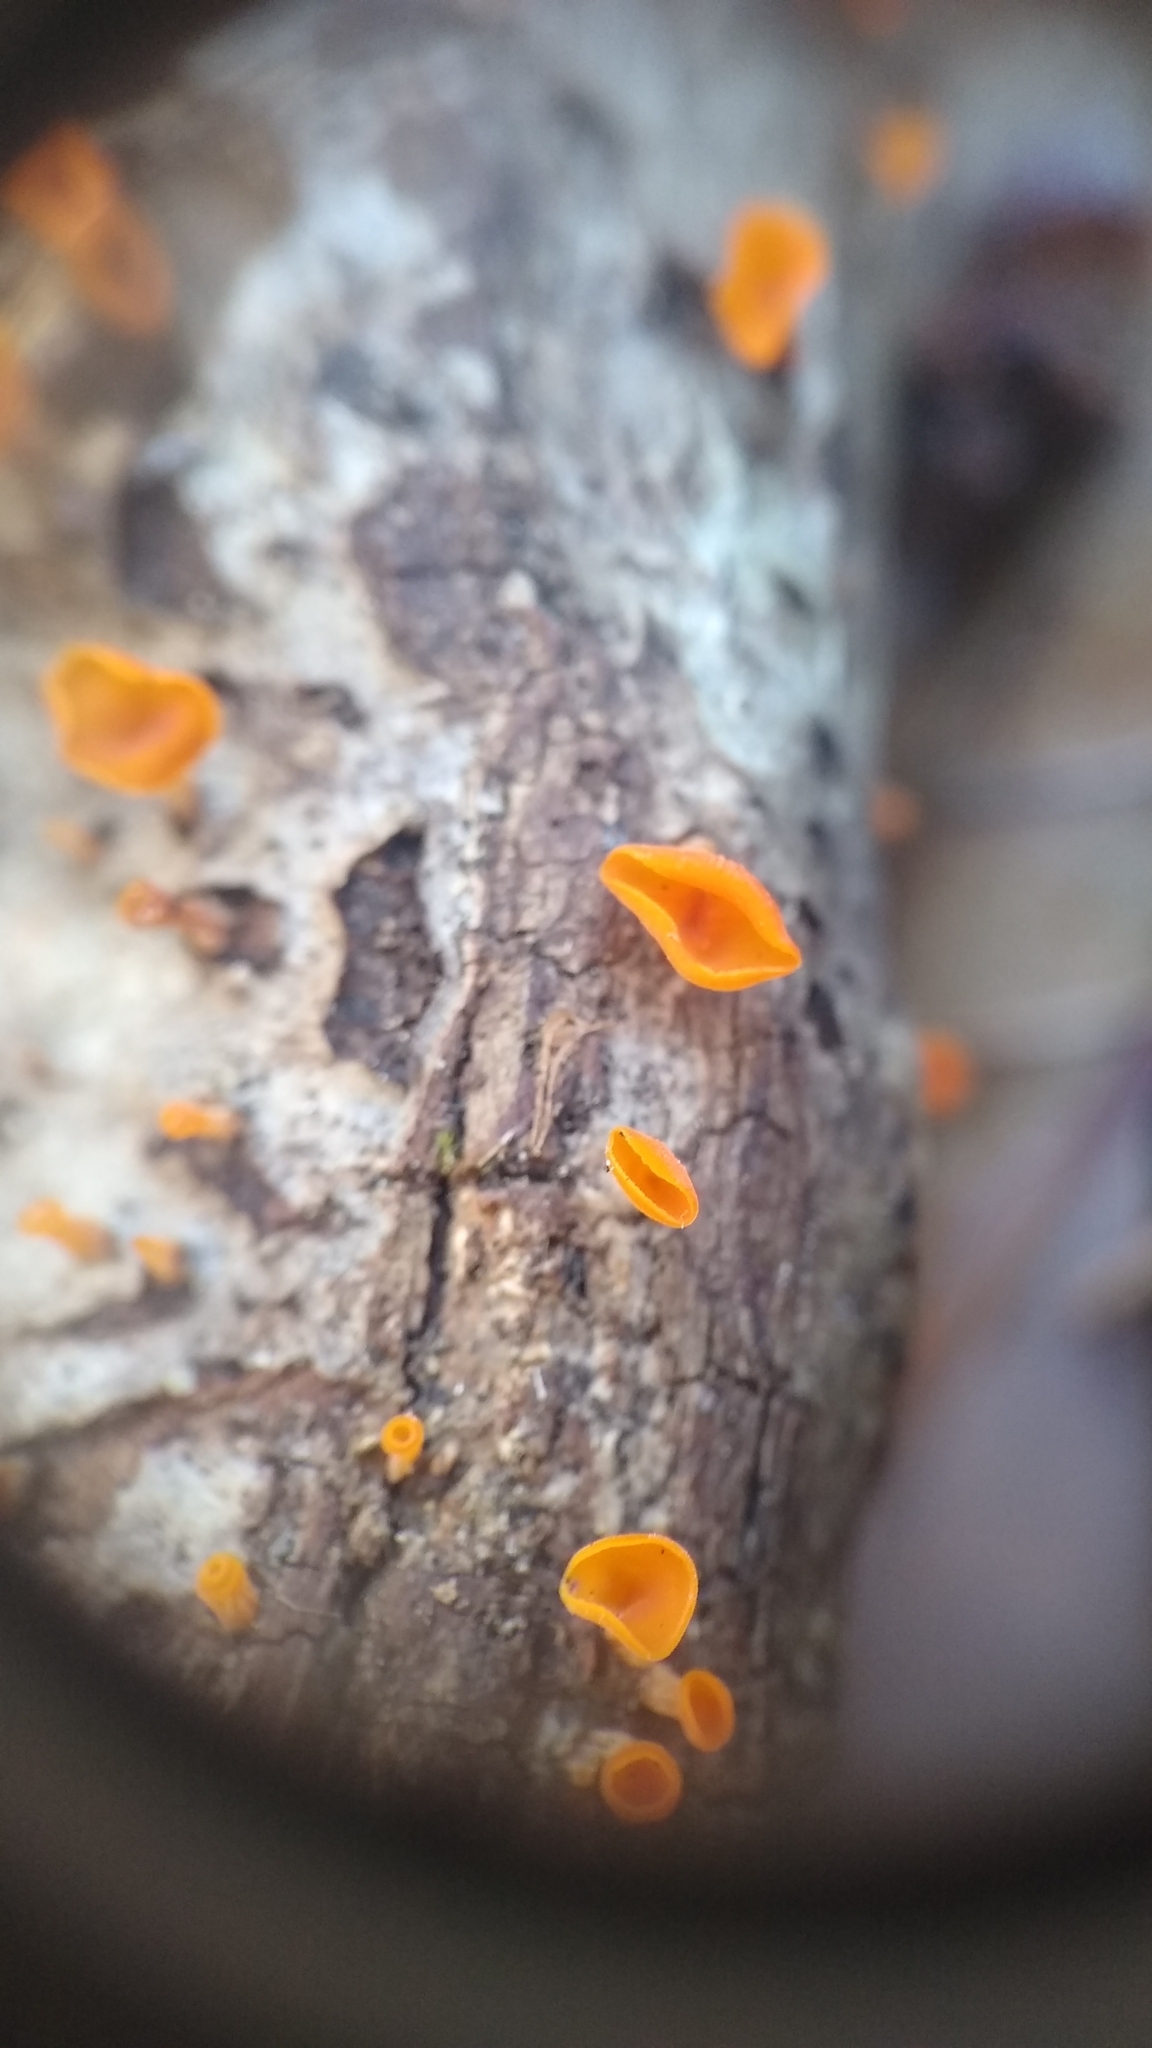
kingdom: Fungi
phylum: Basidiomycota
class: Dacrymycetes
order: Dacrymycetales
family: Dacrymycetaceae
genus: Guepiniopsis
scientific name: Guepiniopsis buccina
